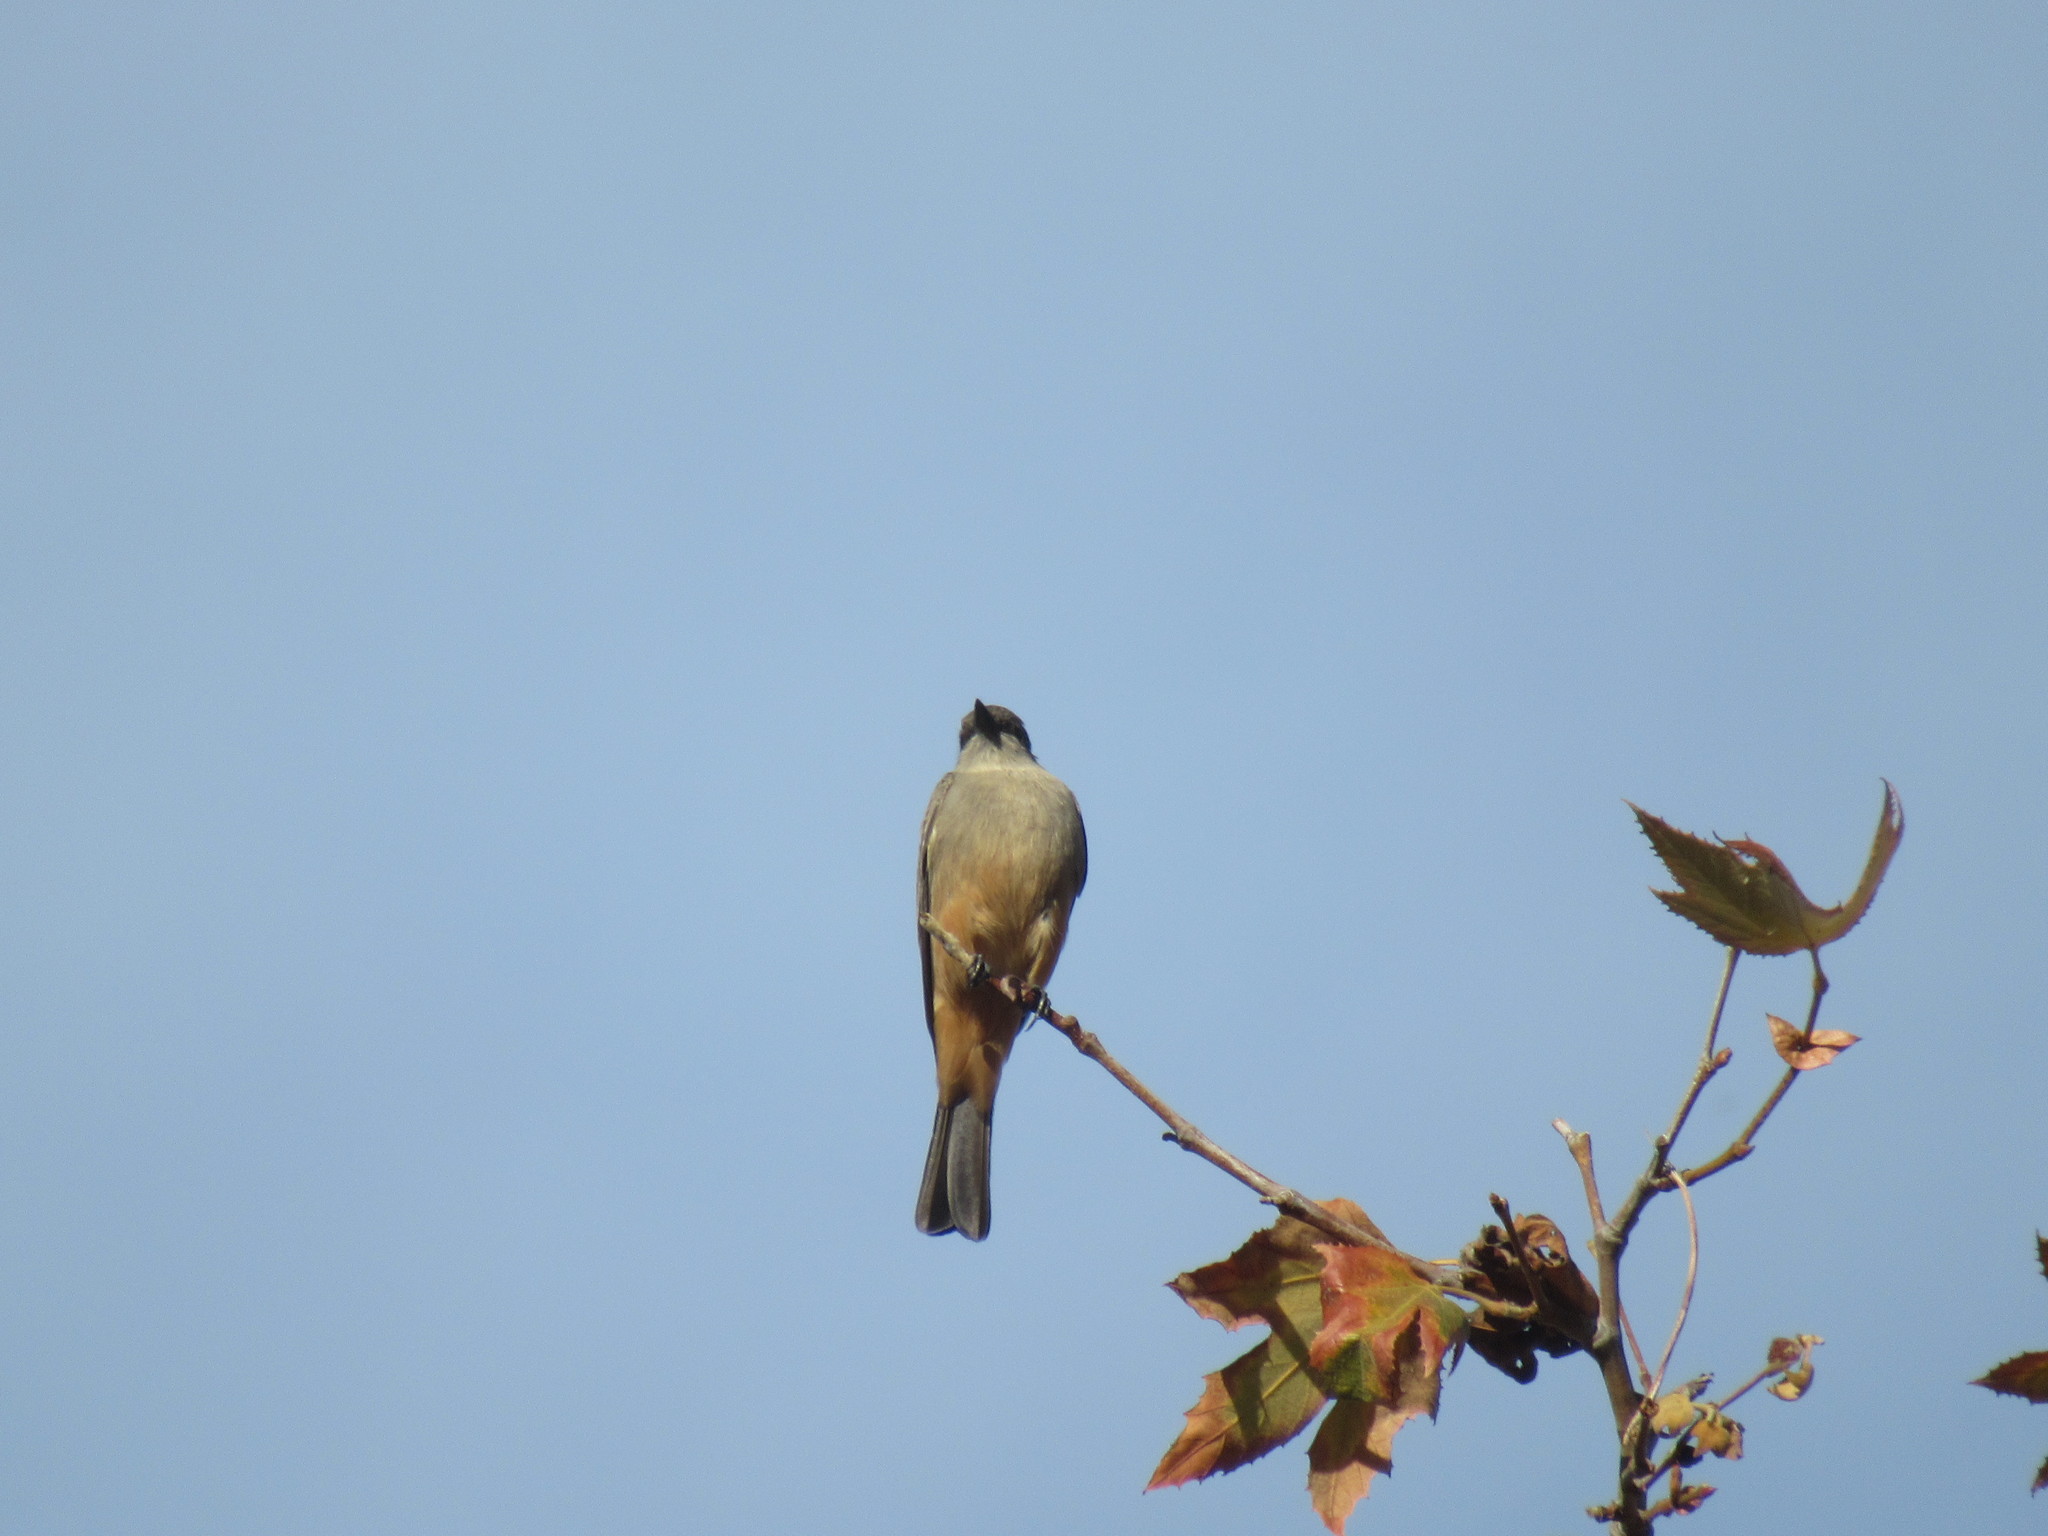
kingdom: Animalia
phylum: Chordata
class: Aves
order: Passeriformes
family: Tyrannidae
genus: Sayornis
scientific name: Sayornis saya
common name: Say's phoebe
